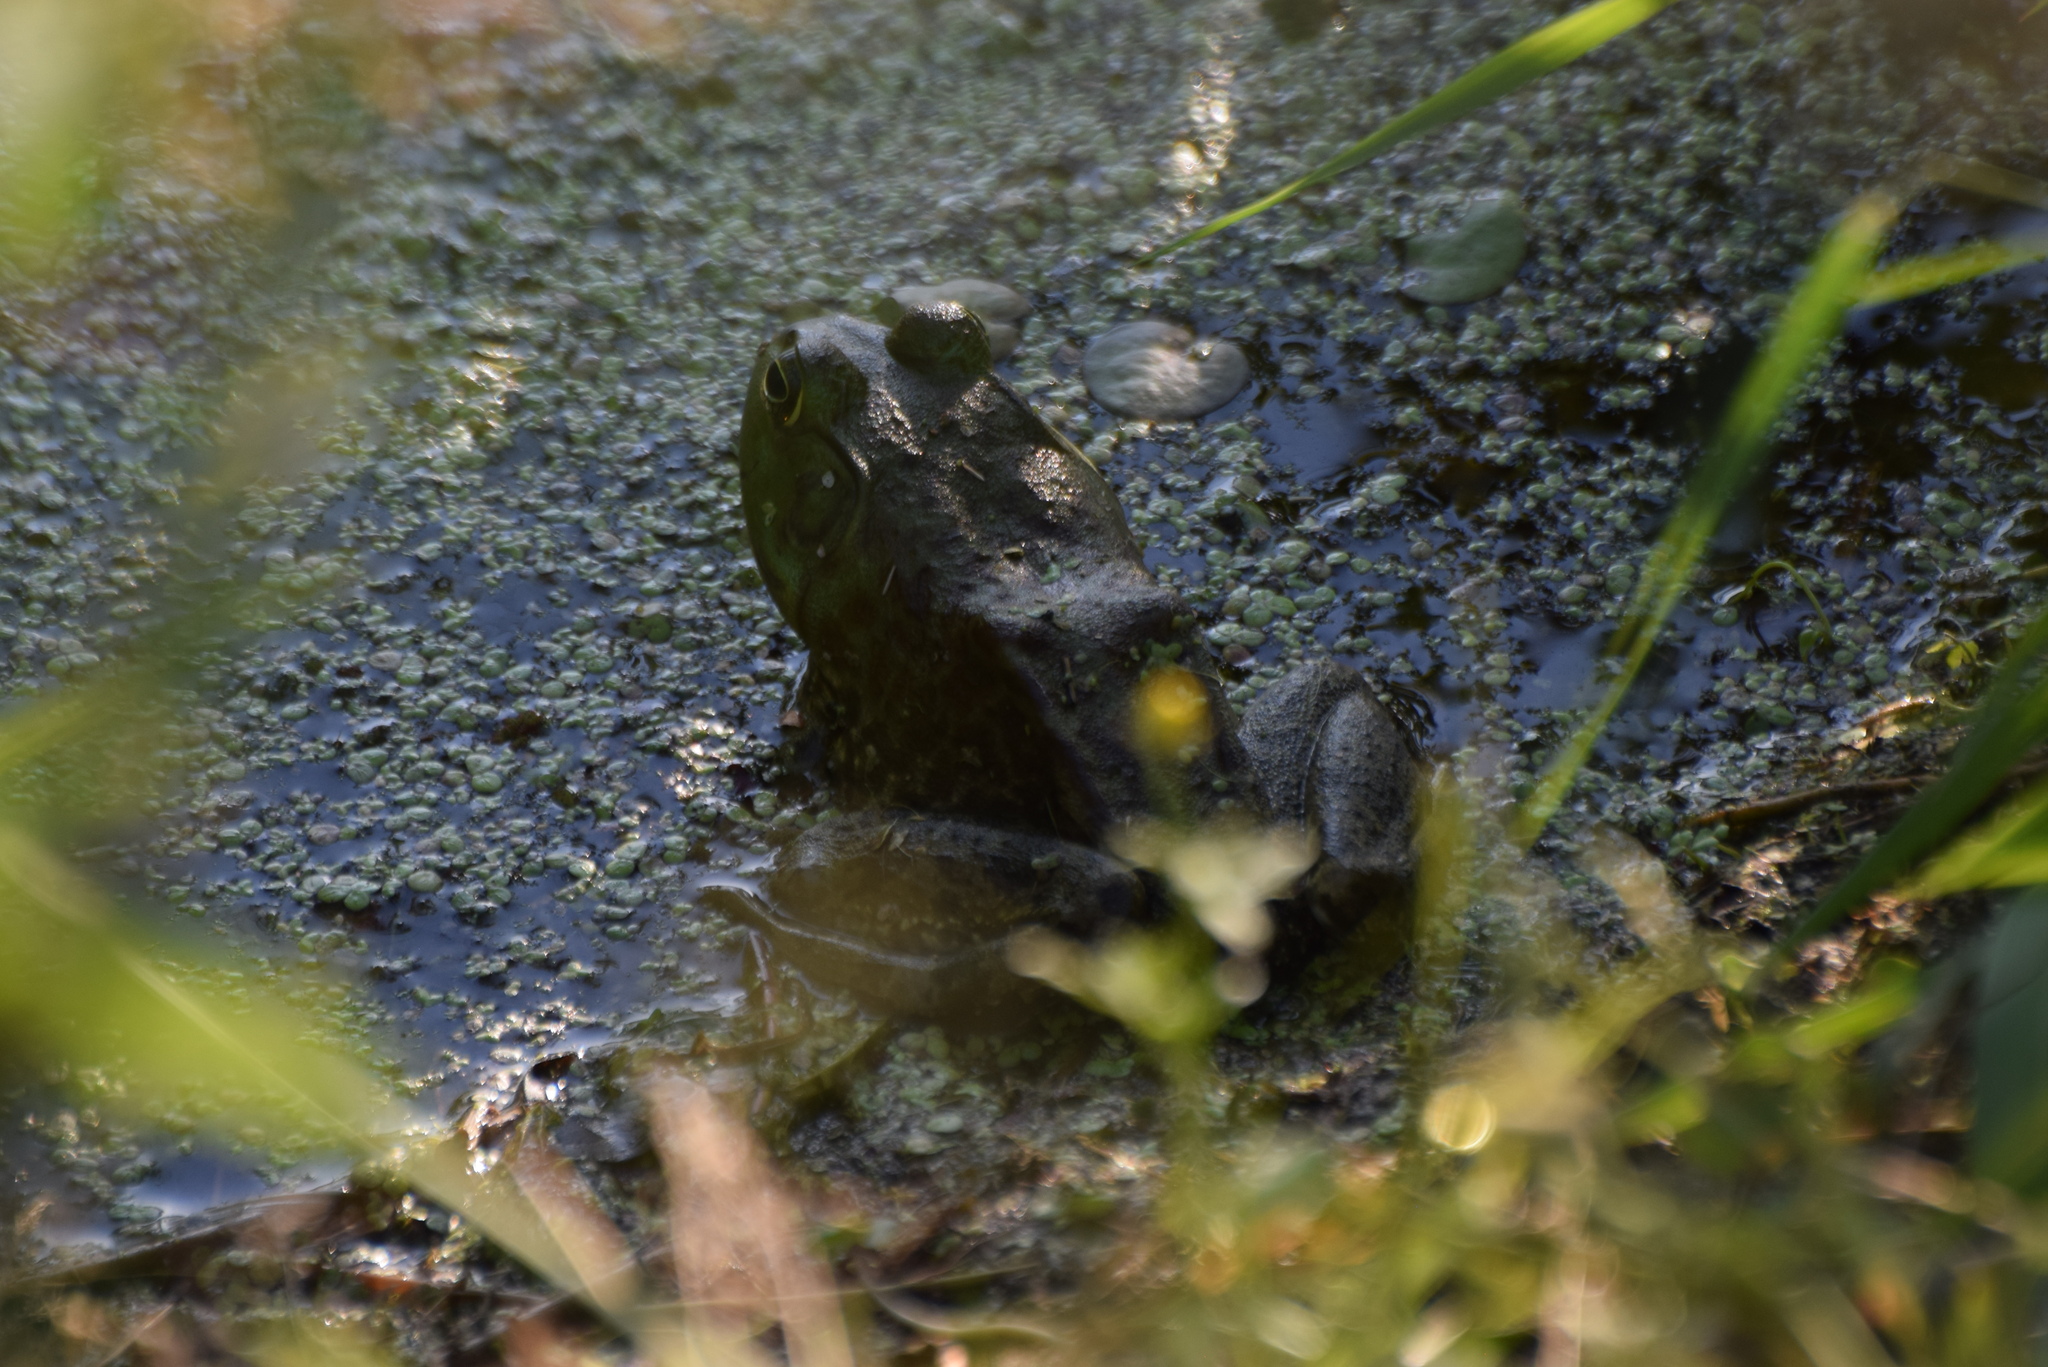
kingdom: Animalia
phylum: Chordata
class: Amphibia
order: Anura
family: Ranidae
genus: Lithobates
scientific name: Lithobates catesbeianus
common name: American bullfrog
